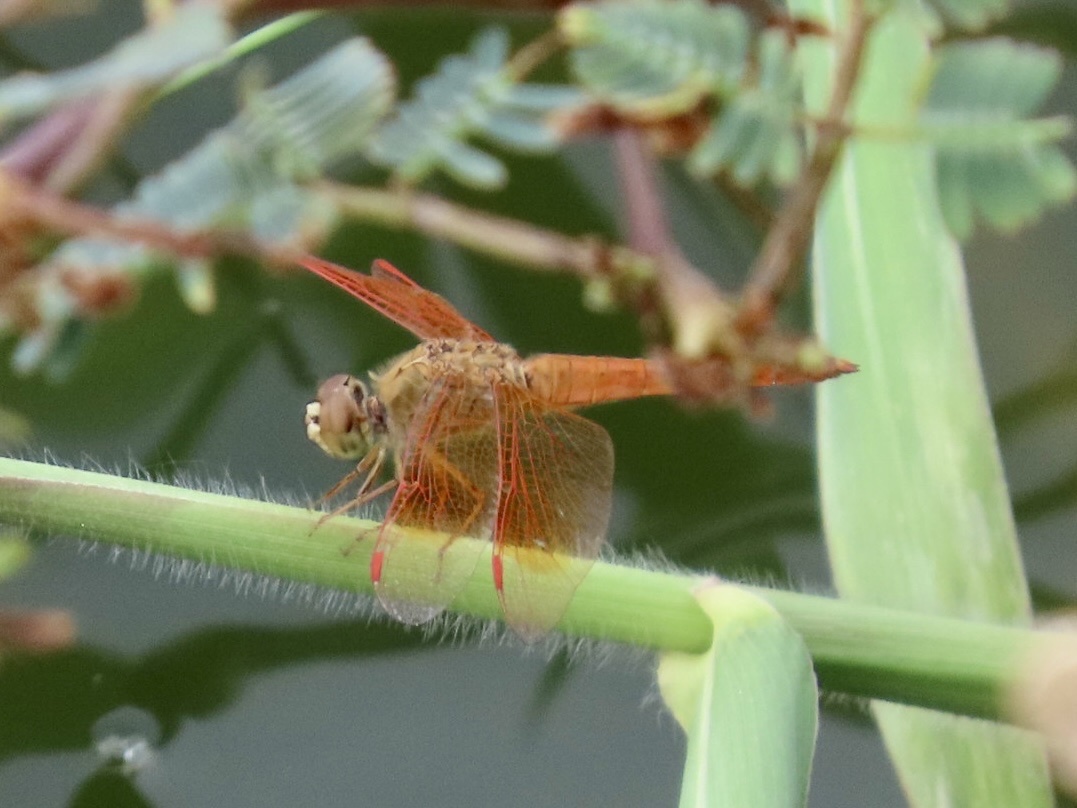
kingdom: Animalia
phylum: Arthropoda
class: Insecta
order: Odonata
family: Libellulidae
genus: Brachythemis
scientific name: Brachythemis contaminata
